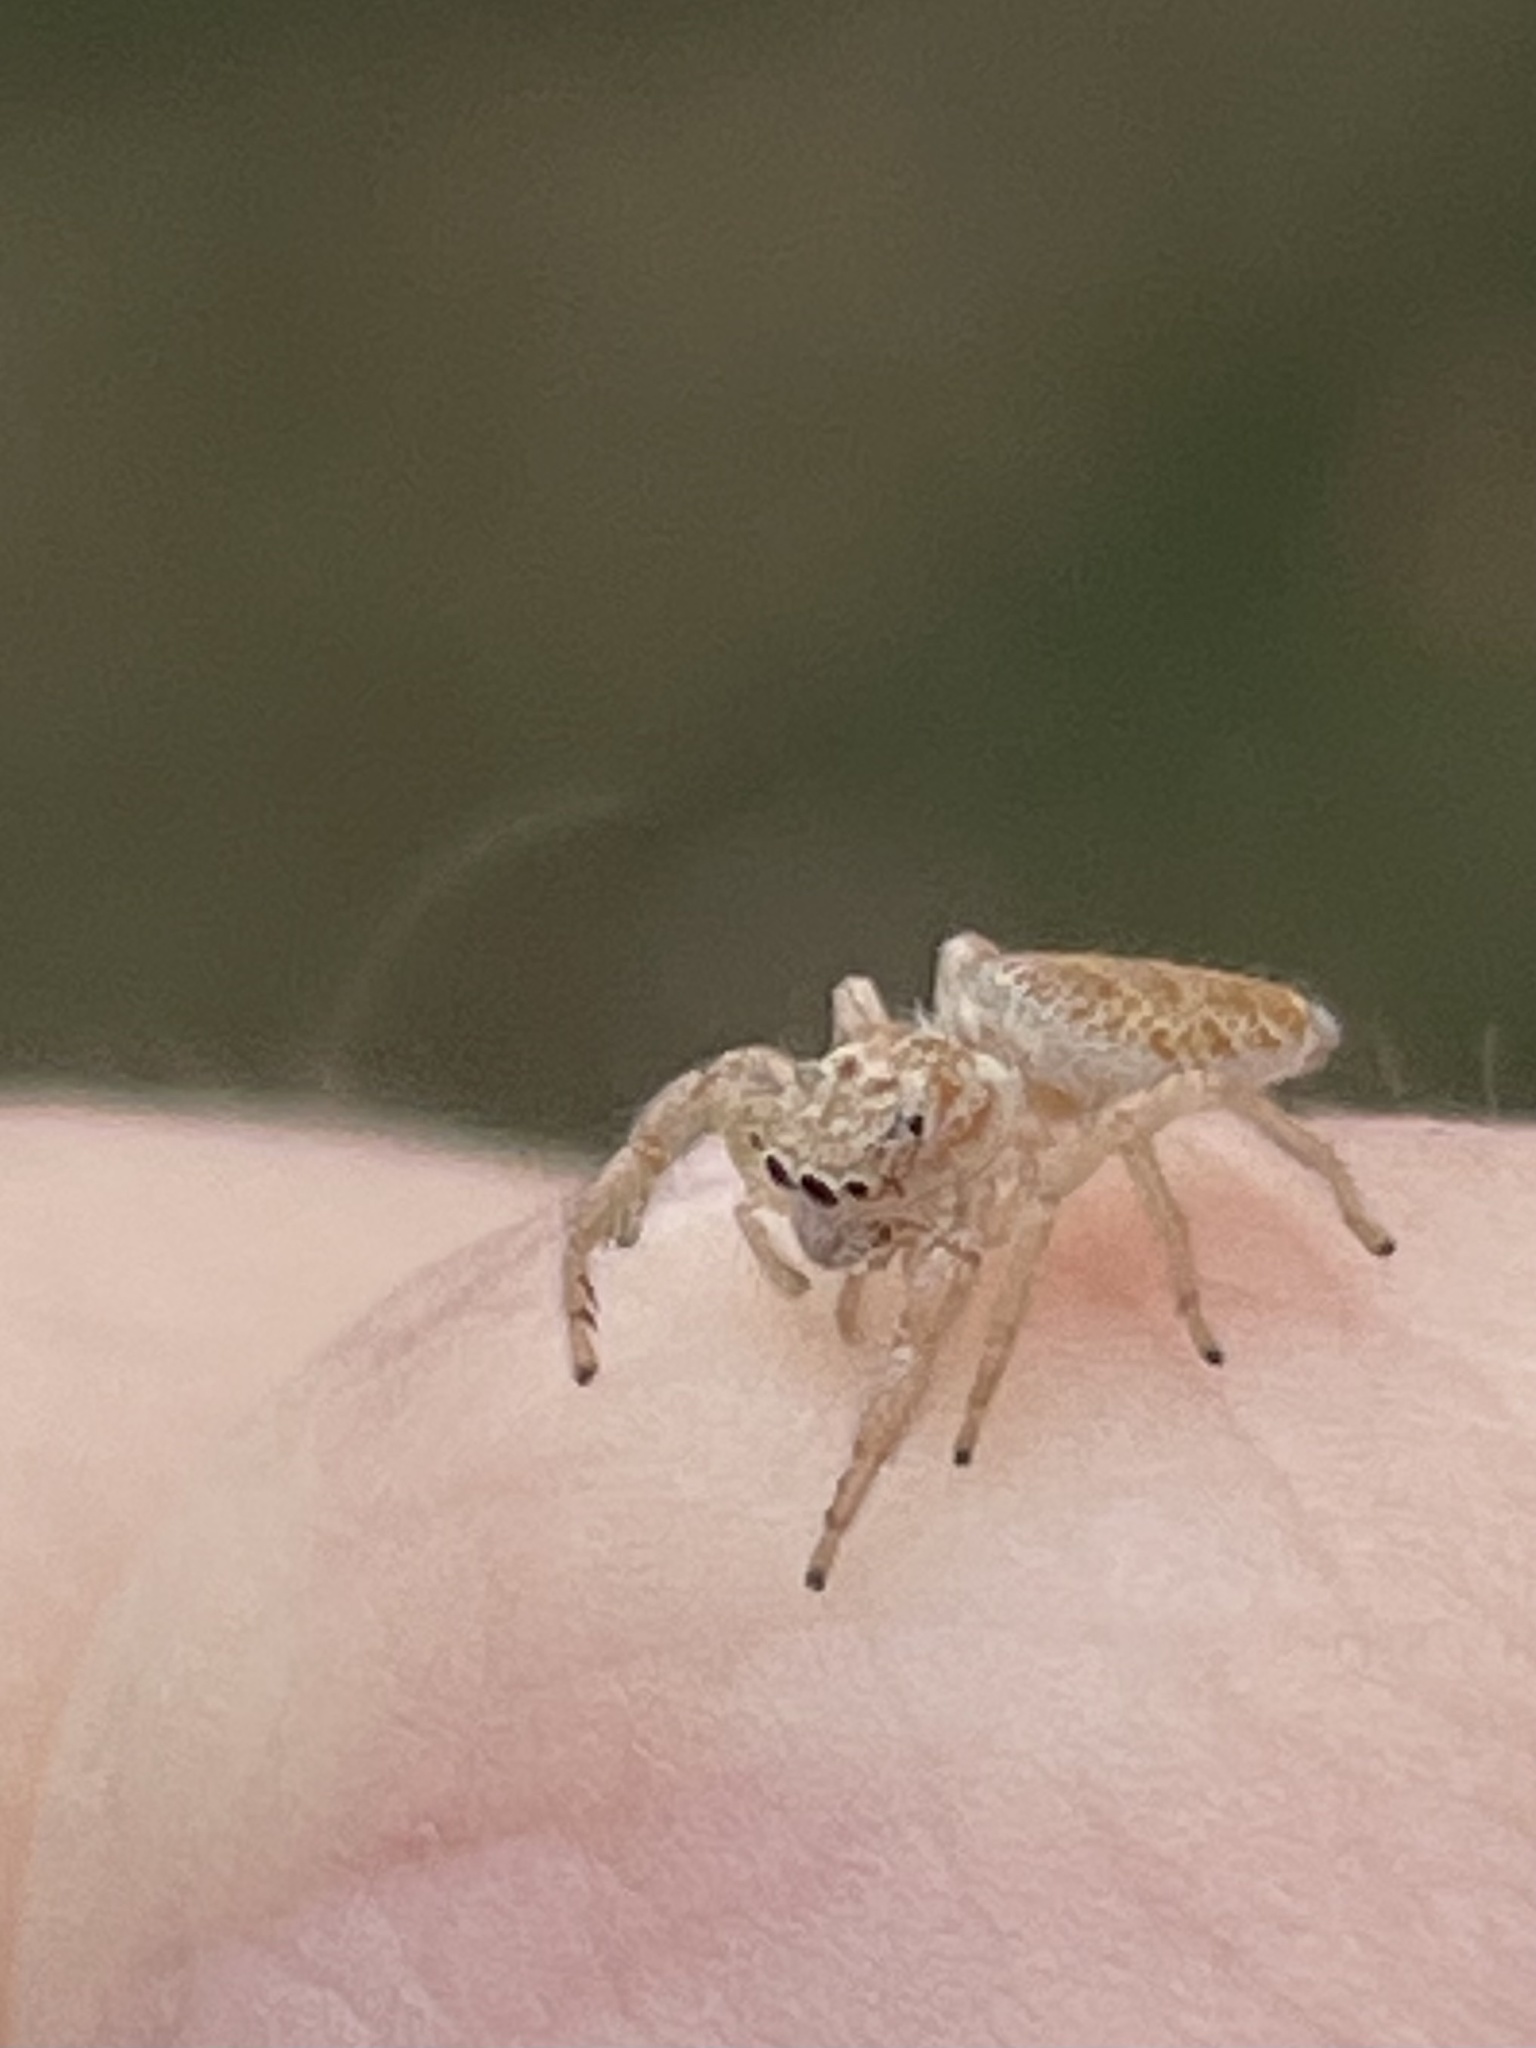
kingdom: Animalia
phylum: Arthropoda
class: Arachnida
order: Araneae
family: Salticidae
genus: Hentzia
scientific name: Hentzia mitrata
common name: White-jawed jumping spider
